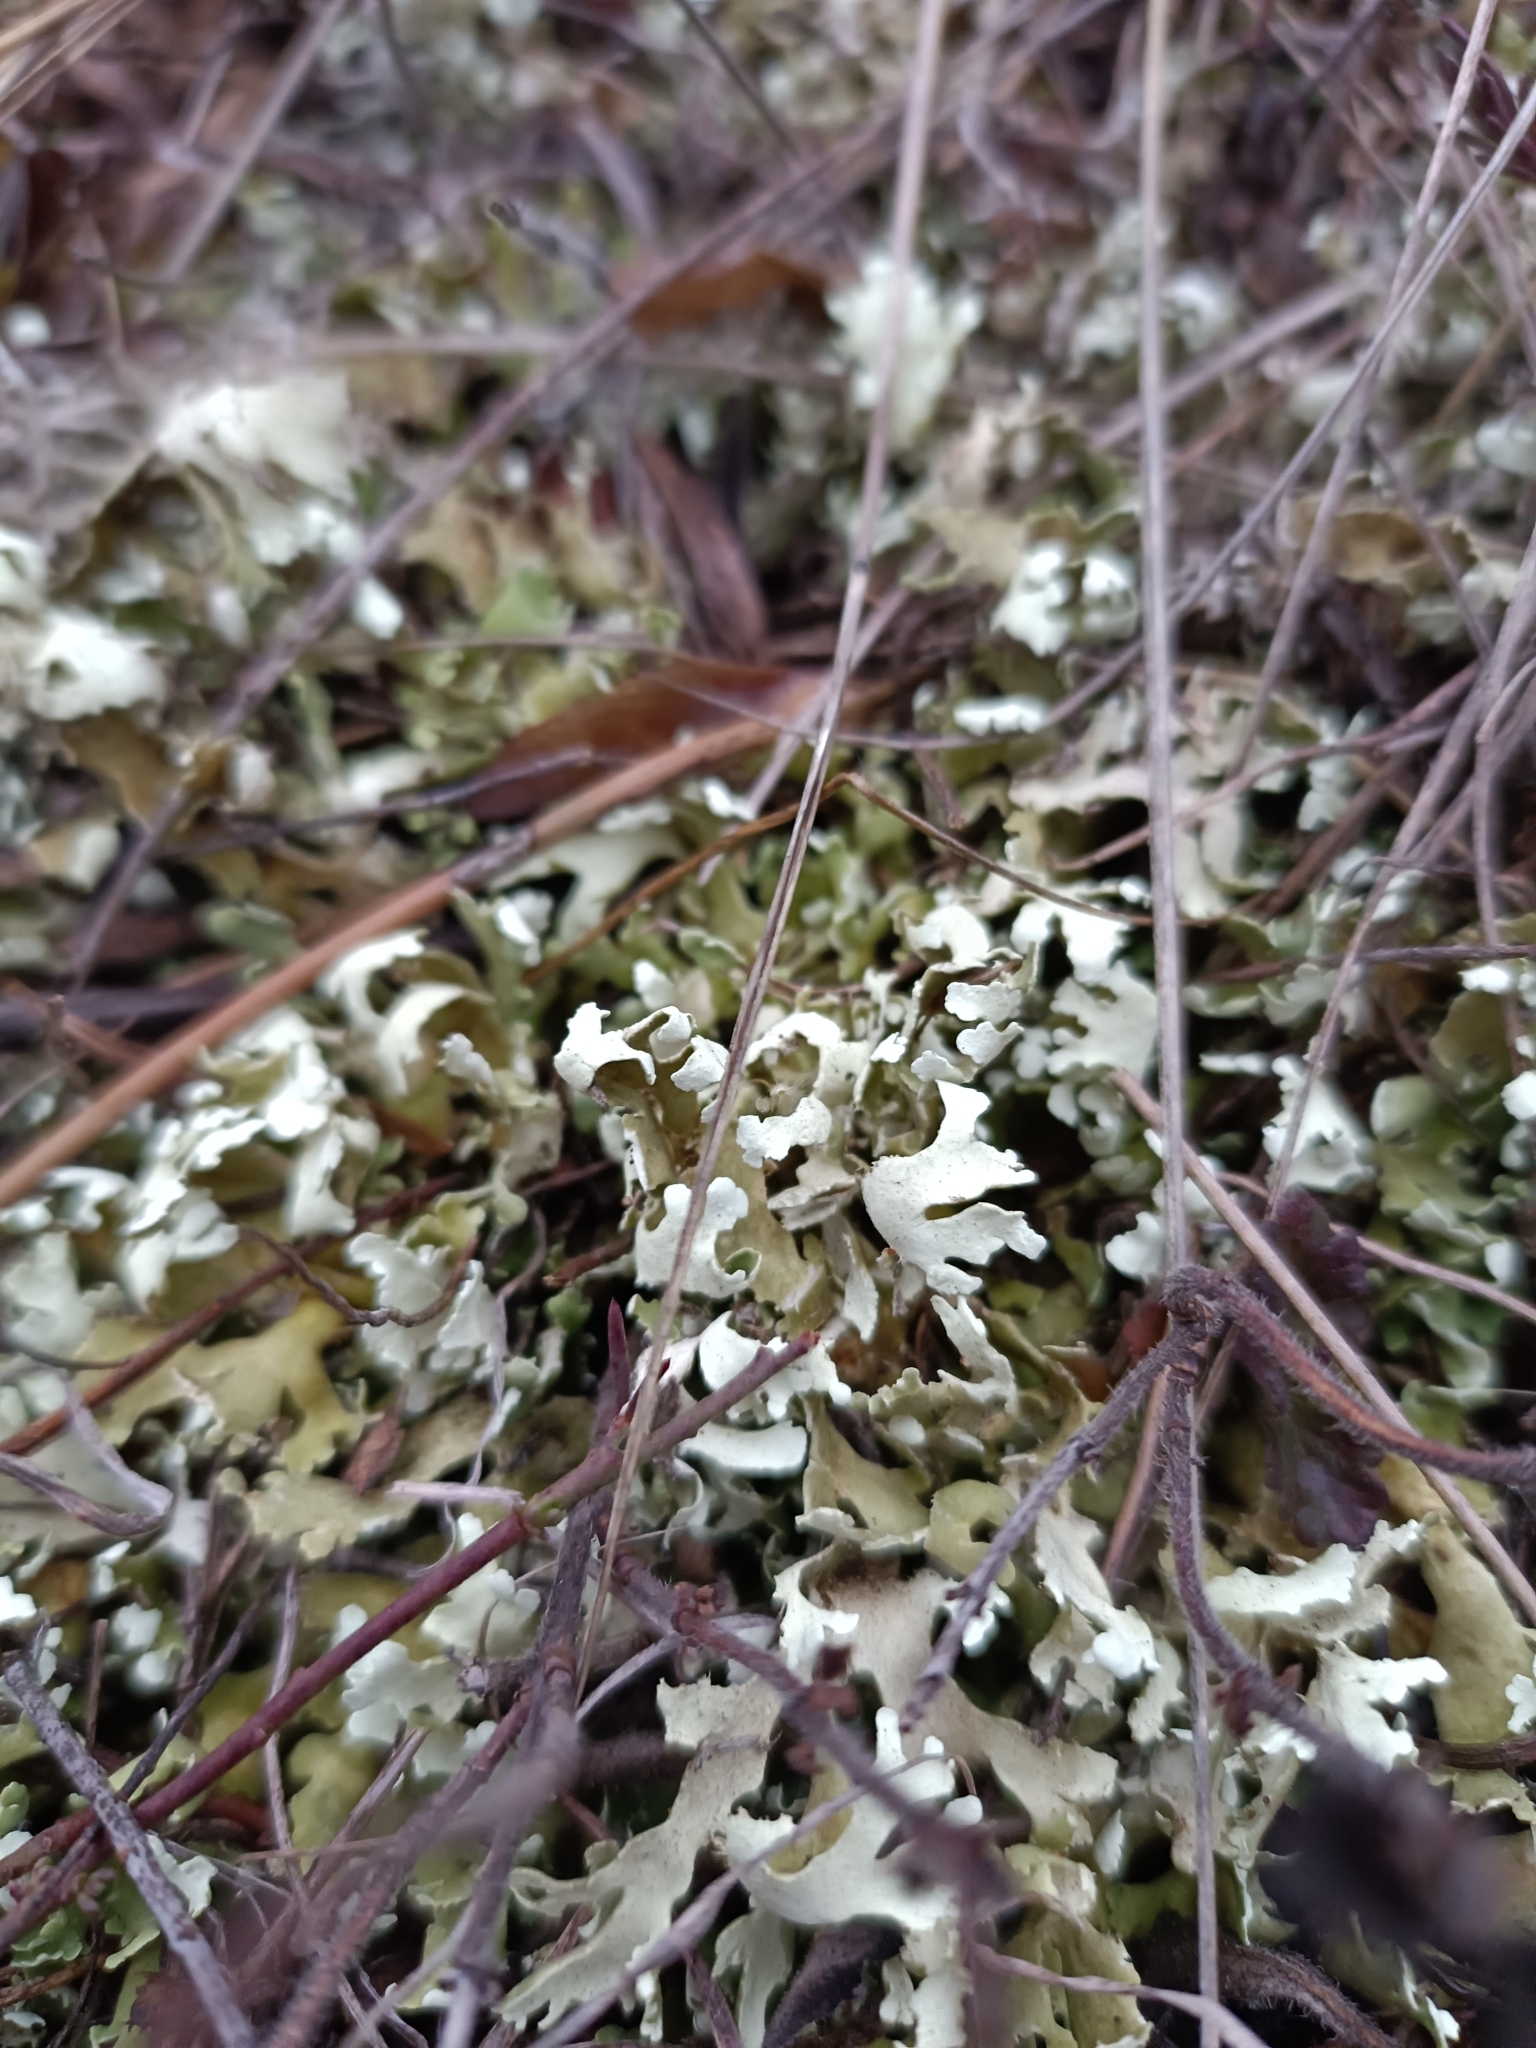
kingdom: Fungi
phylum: Ascomycota
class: Lecanoromycetes
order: Lecanorales
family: Cladoniaceae
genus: Cladonia
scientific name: Cladonia foliacea
